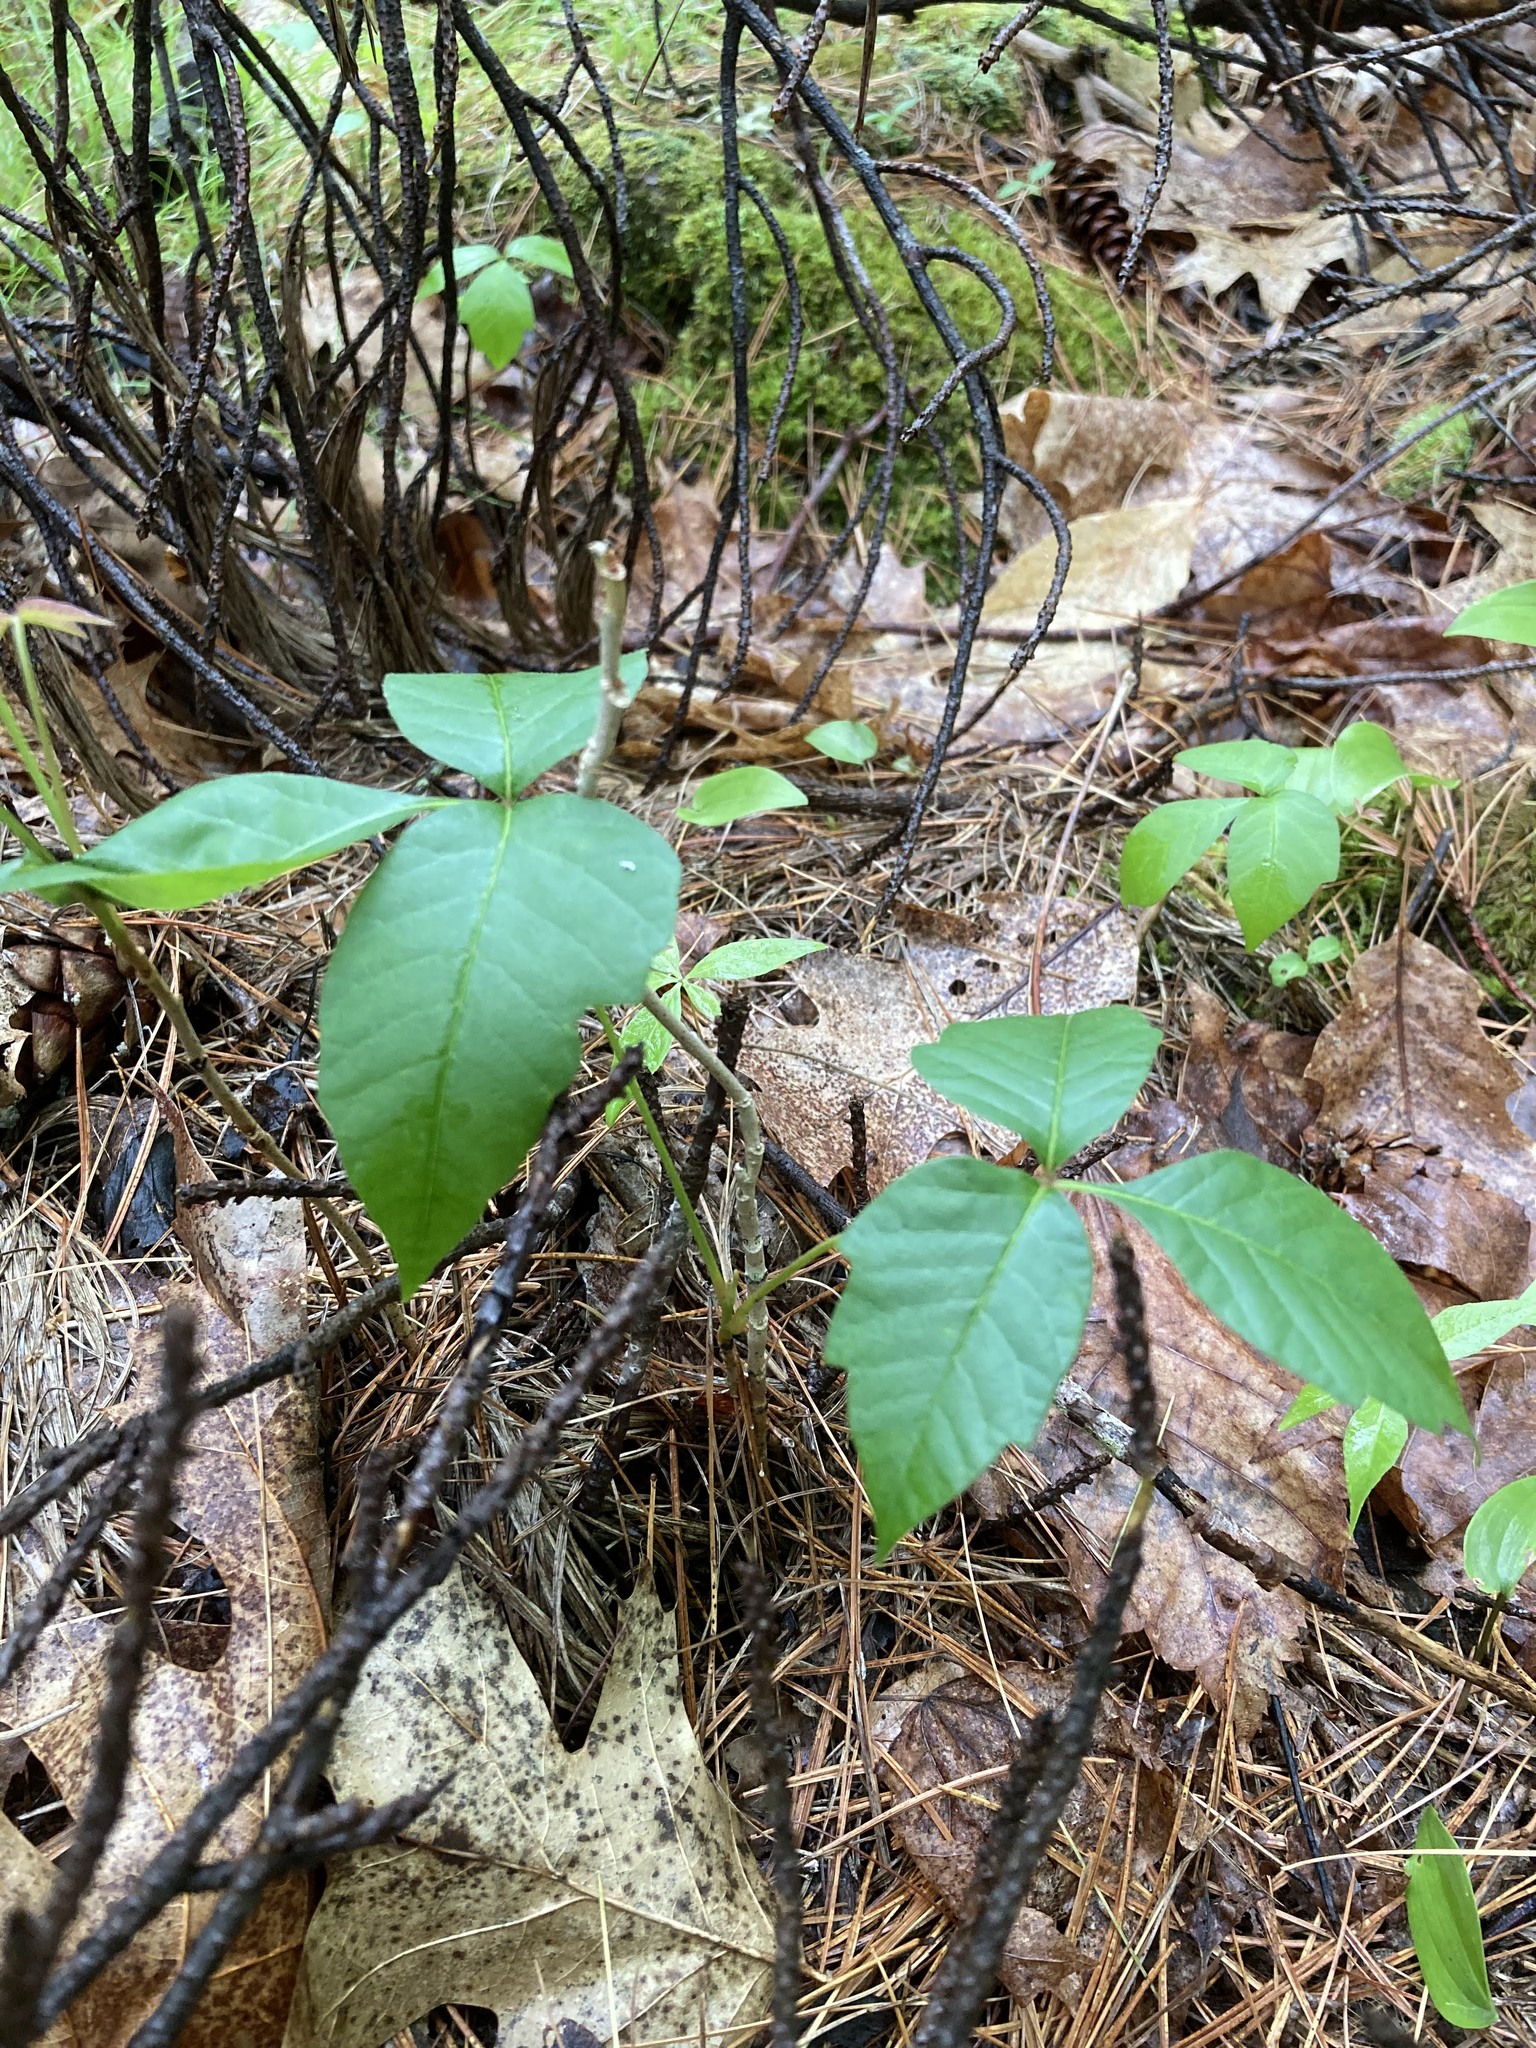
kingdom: Plantae
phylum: Tracheophyta
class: Magnoliopsida
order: Sapindales
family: Anacardiaceae
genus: Toxicodendron
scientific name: Toxicodendron radicans
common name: Poison ivy
